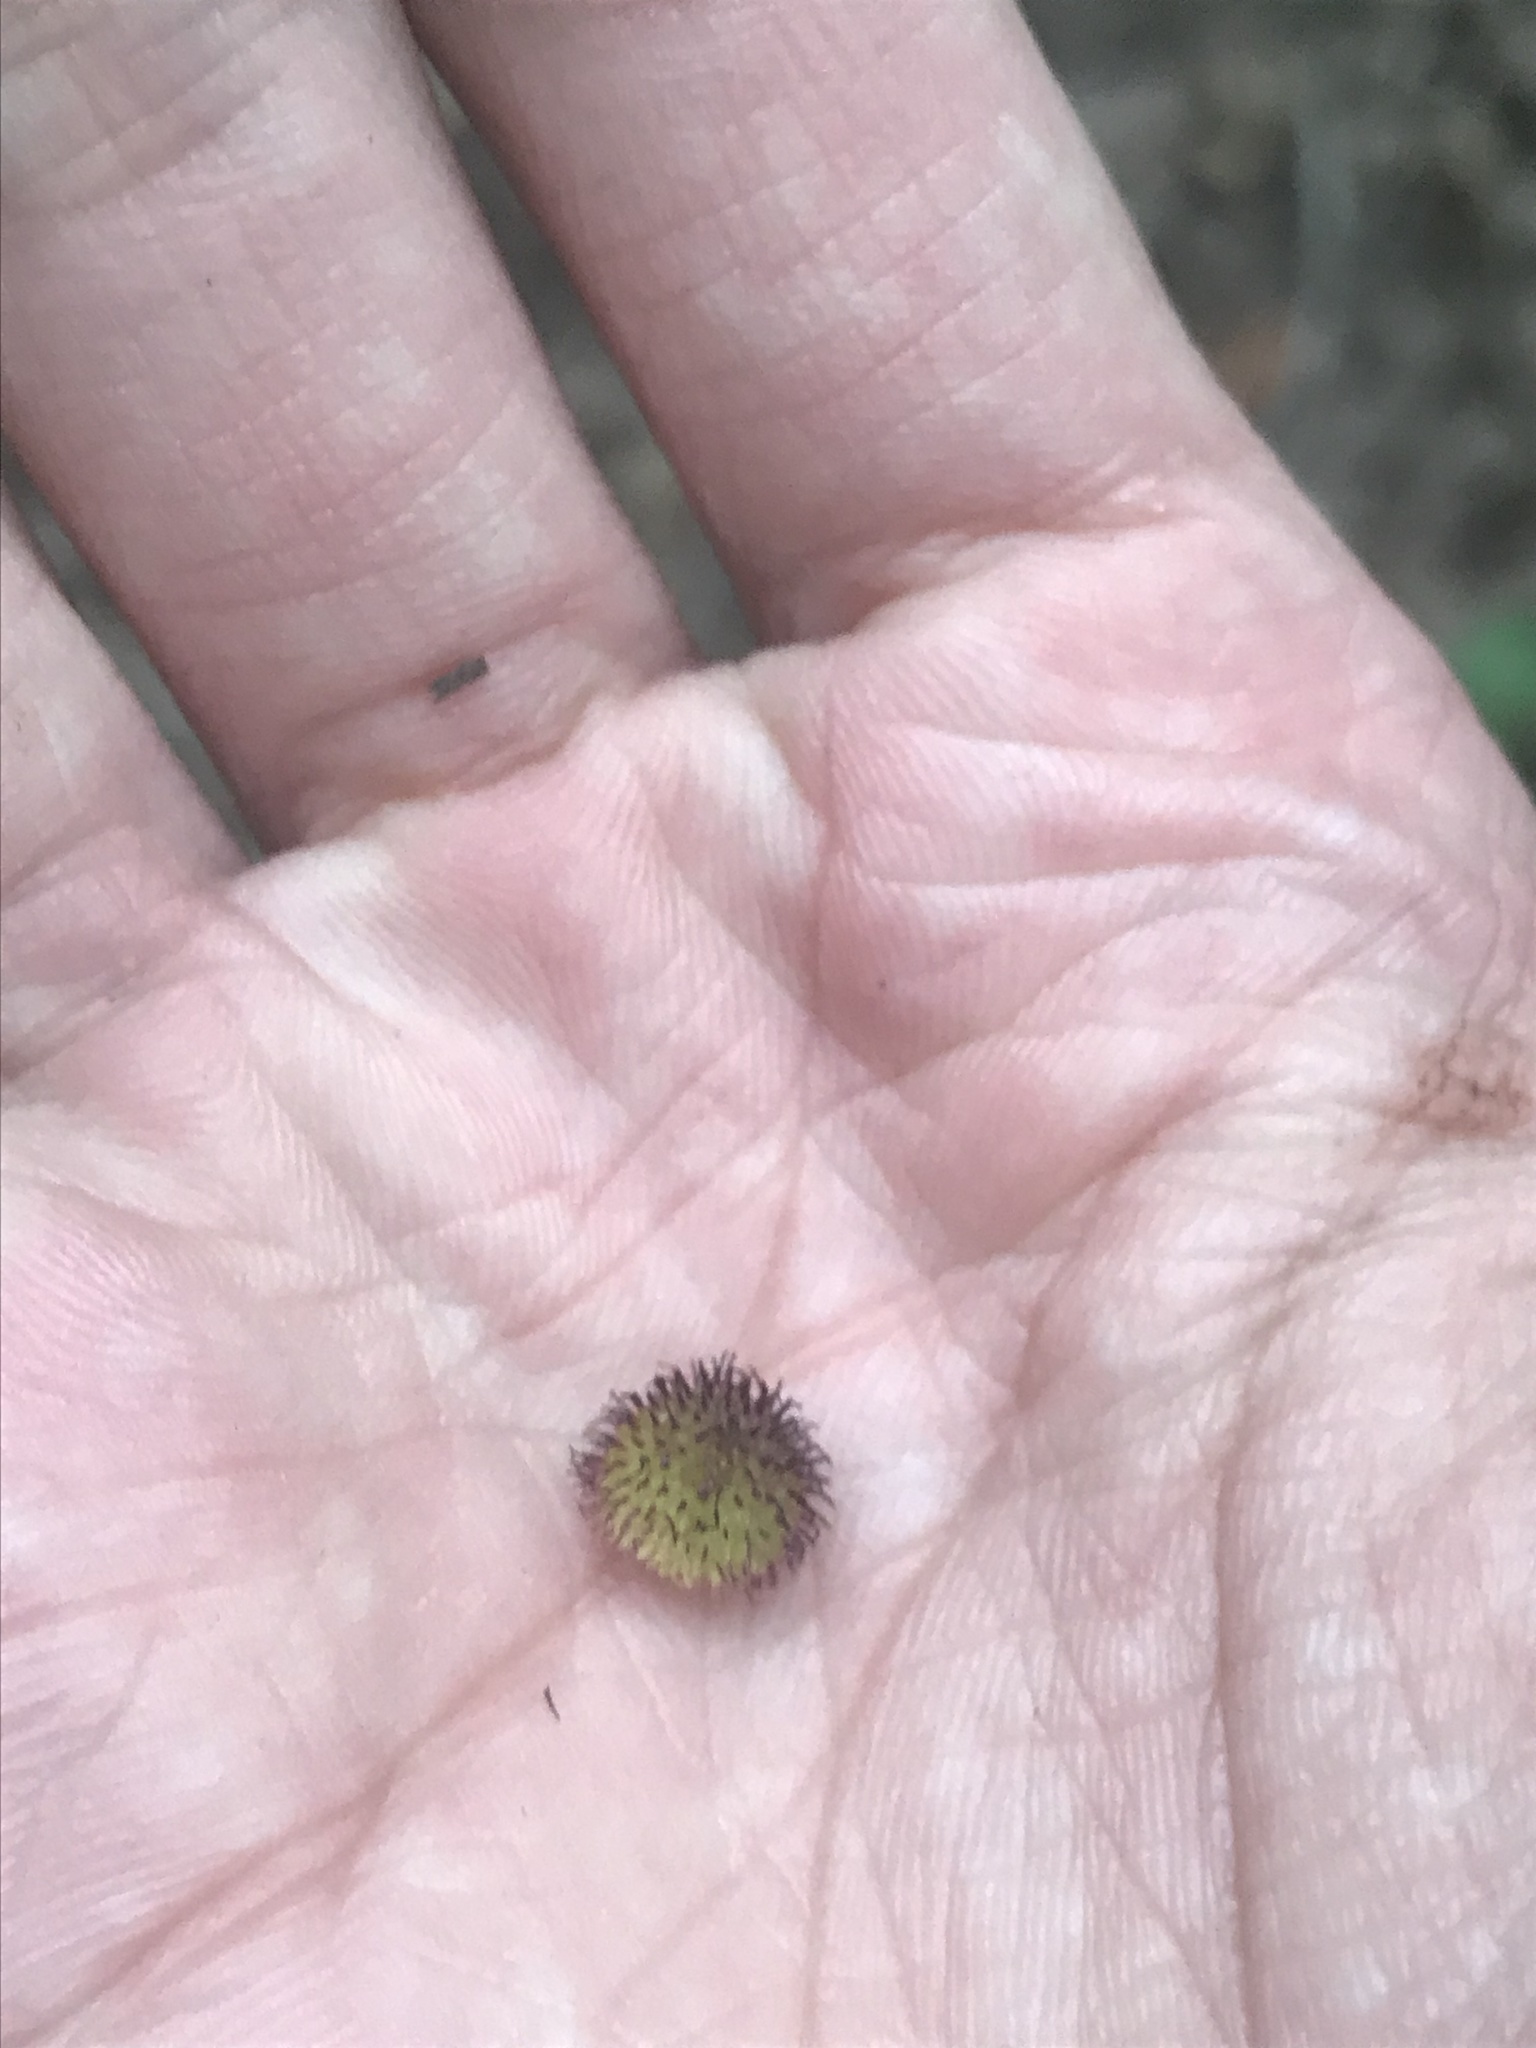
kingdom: Animalia
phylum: Arthropoda
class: Insecta
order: Hymenoptera
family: Cynipidae
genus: Acraspis
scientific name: Acraspis
